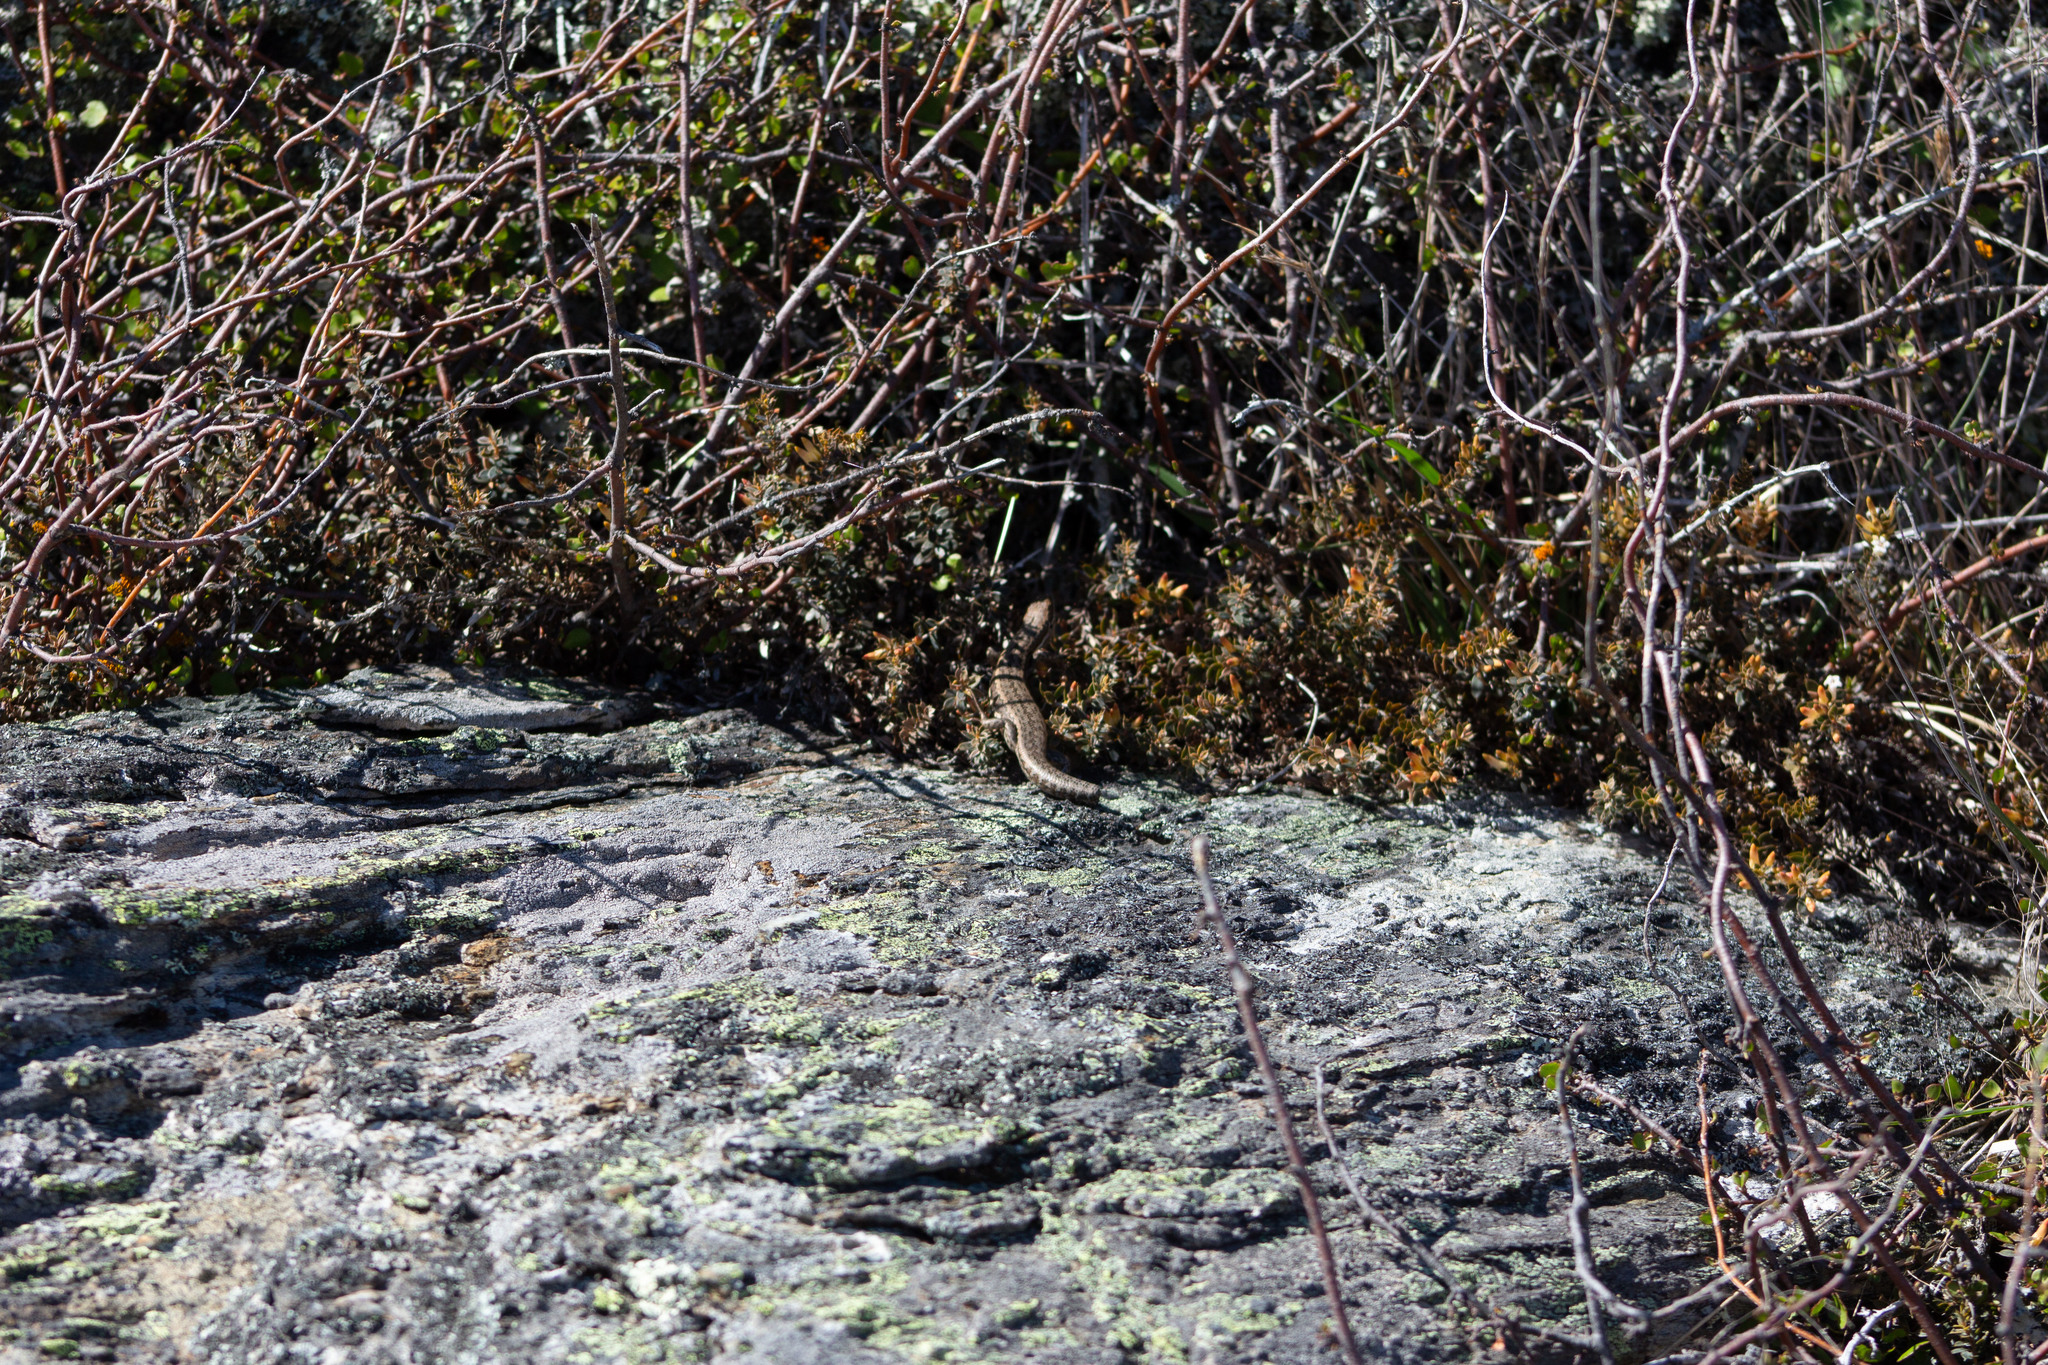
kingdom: Animalia
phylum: Chordata
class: Squamata
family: Scincidae
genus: Oligosoma
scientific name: Oligosoma maccanni
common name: Mccann’s skink
